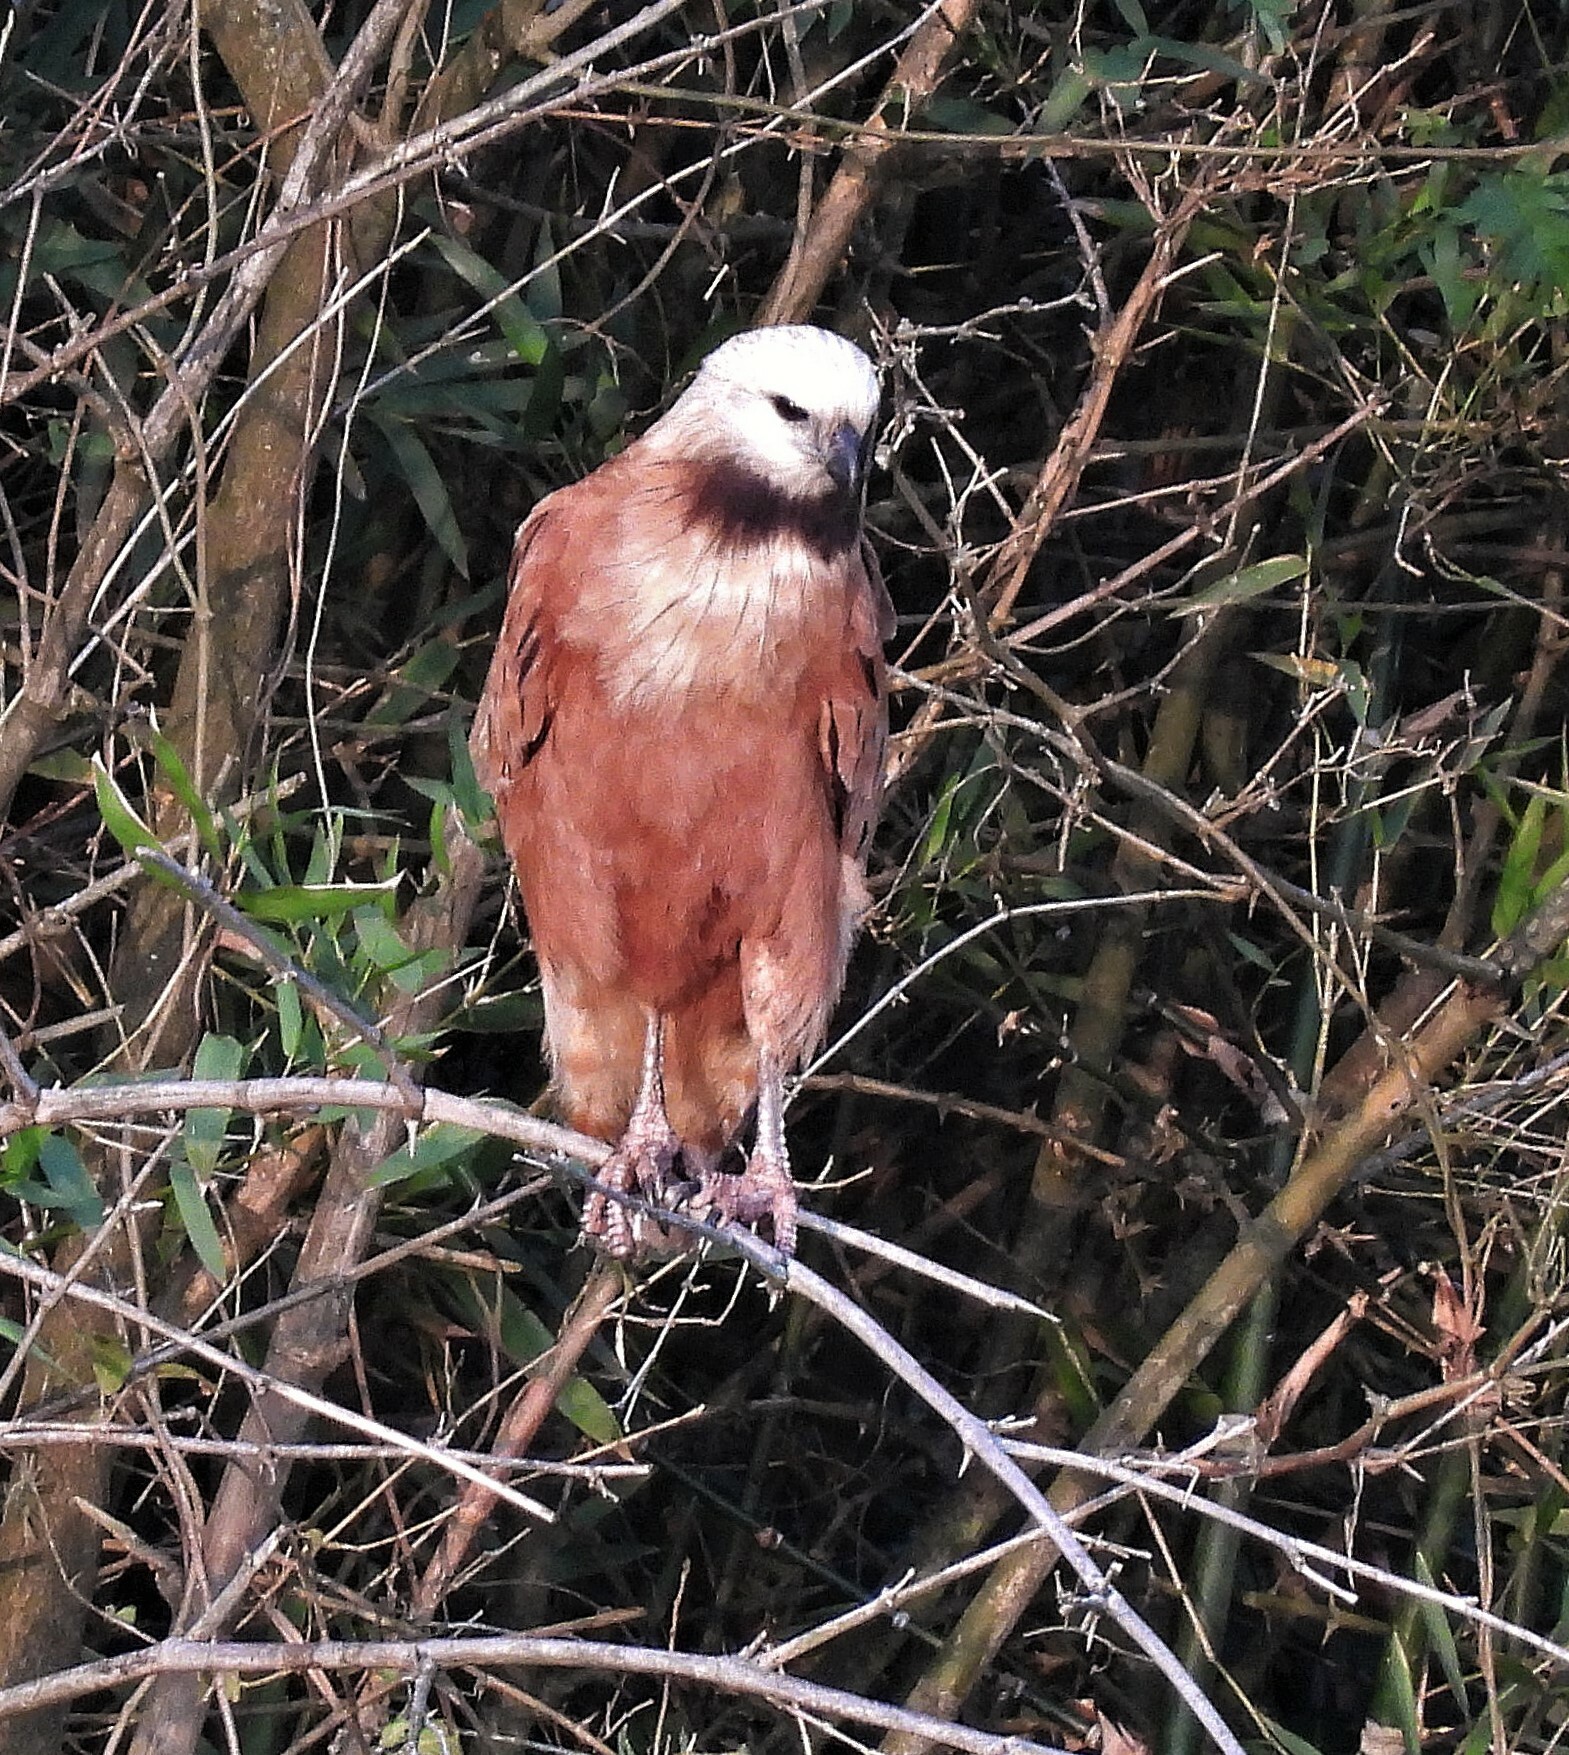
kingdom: Animalia
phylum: Chordata
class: Aves
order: Accipitriformes
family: Accipitridae
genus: Busarellus
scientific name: Busarellus nigricollis
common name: Black-collared hawk
